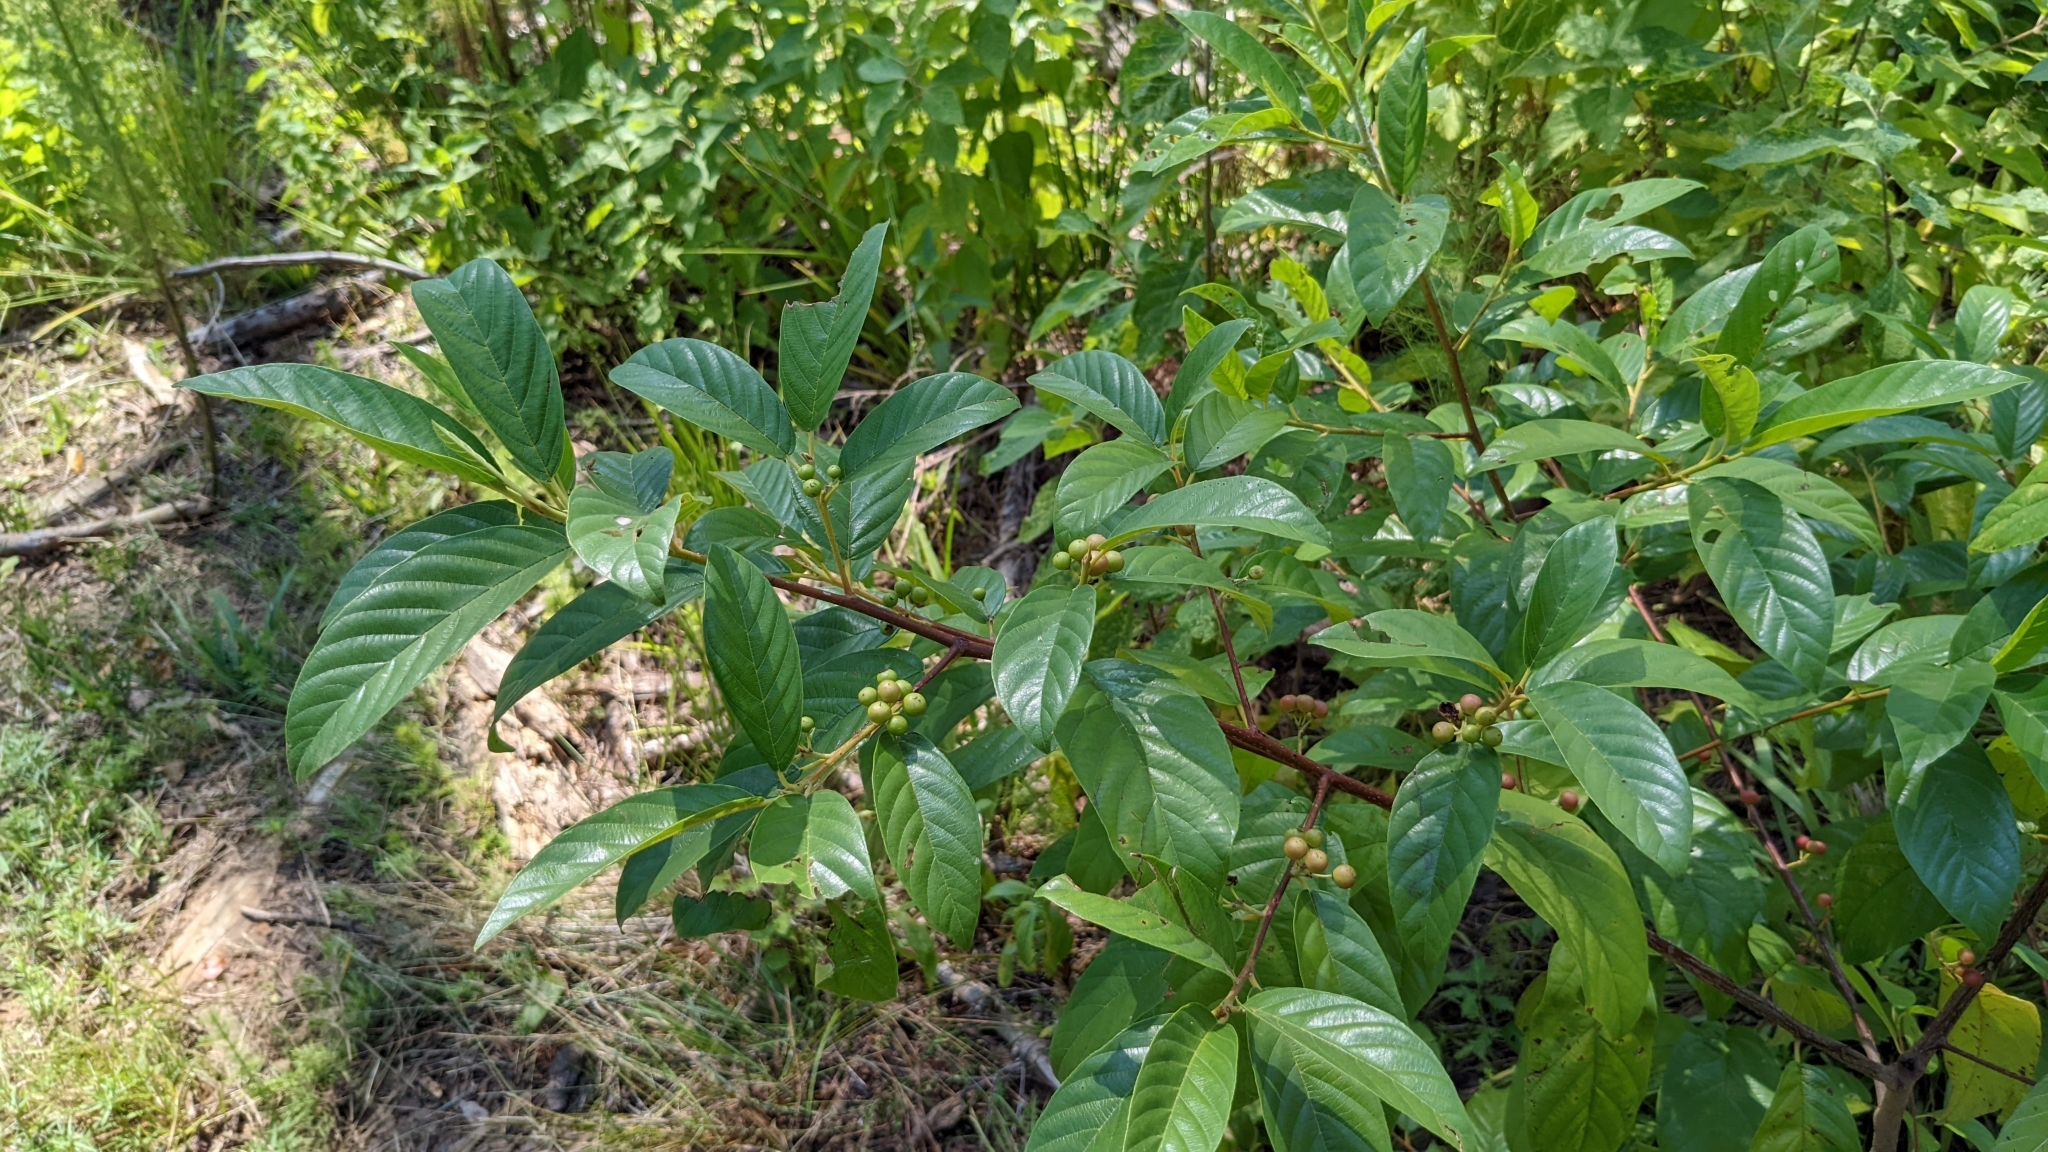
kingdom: Plantae
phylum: Tracheophyta
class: Magnoliopsida
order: Rosales
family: Rhamnaceae
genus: Frangula
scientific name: Frangula caroliniana
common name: Carolina buckthorn
